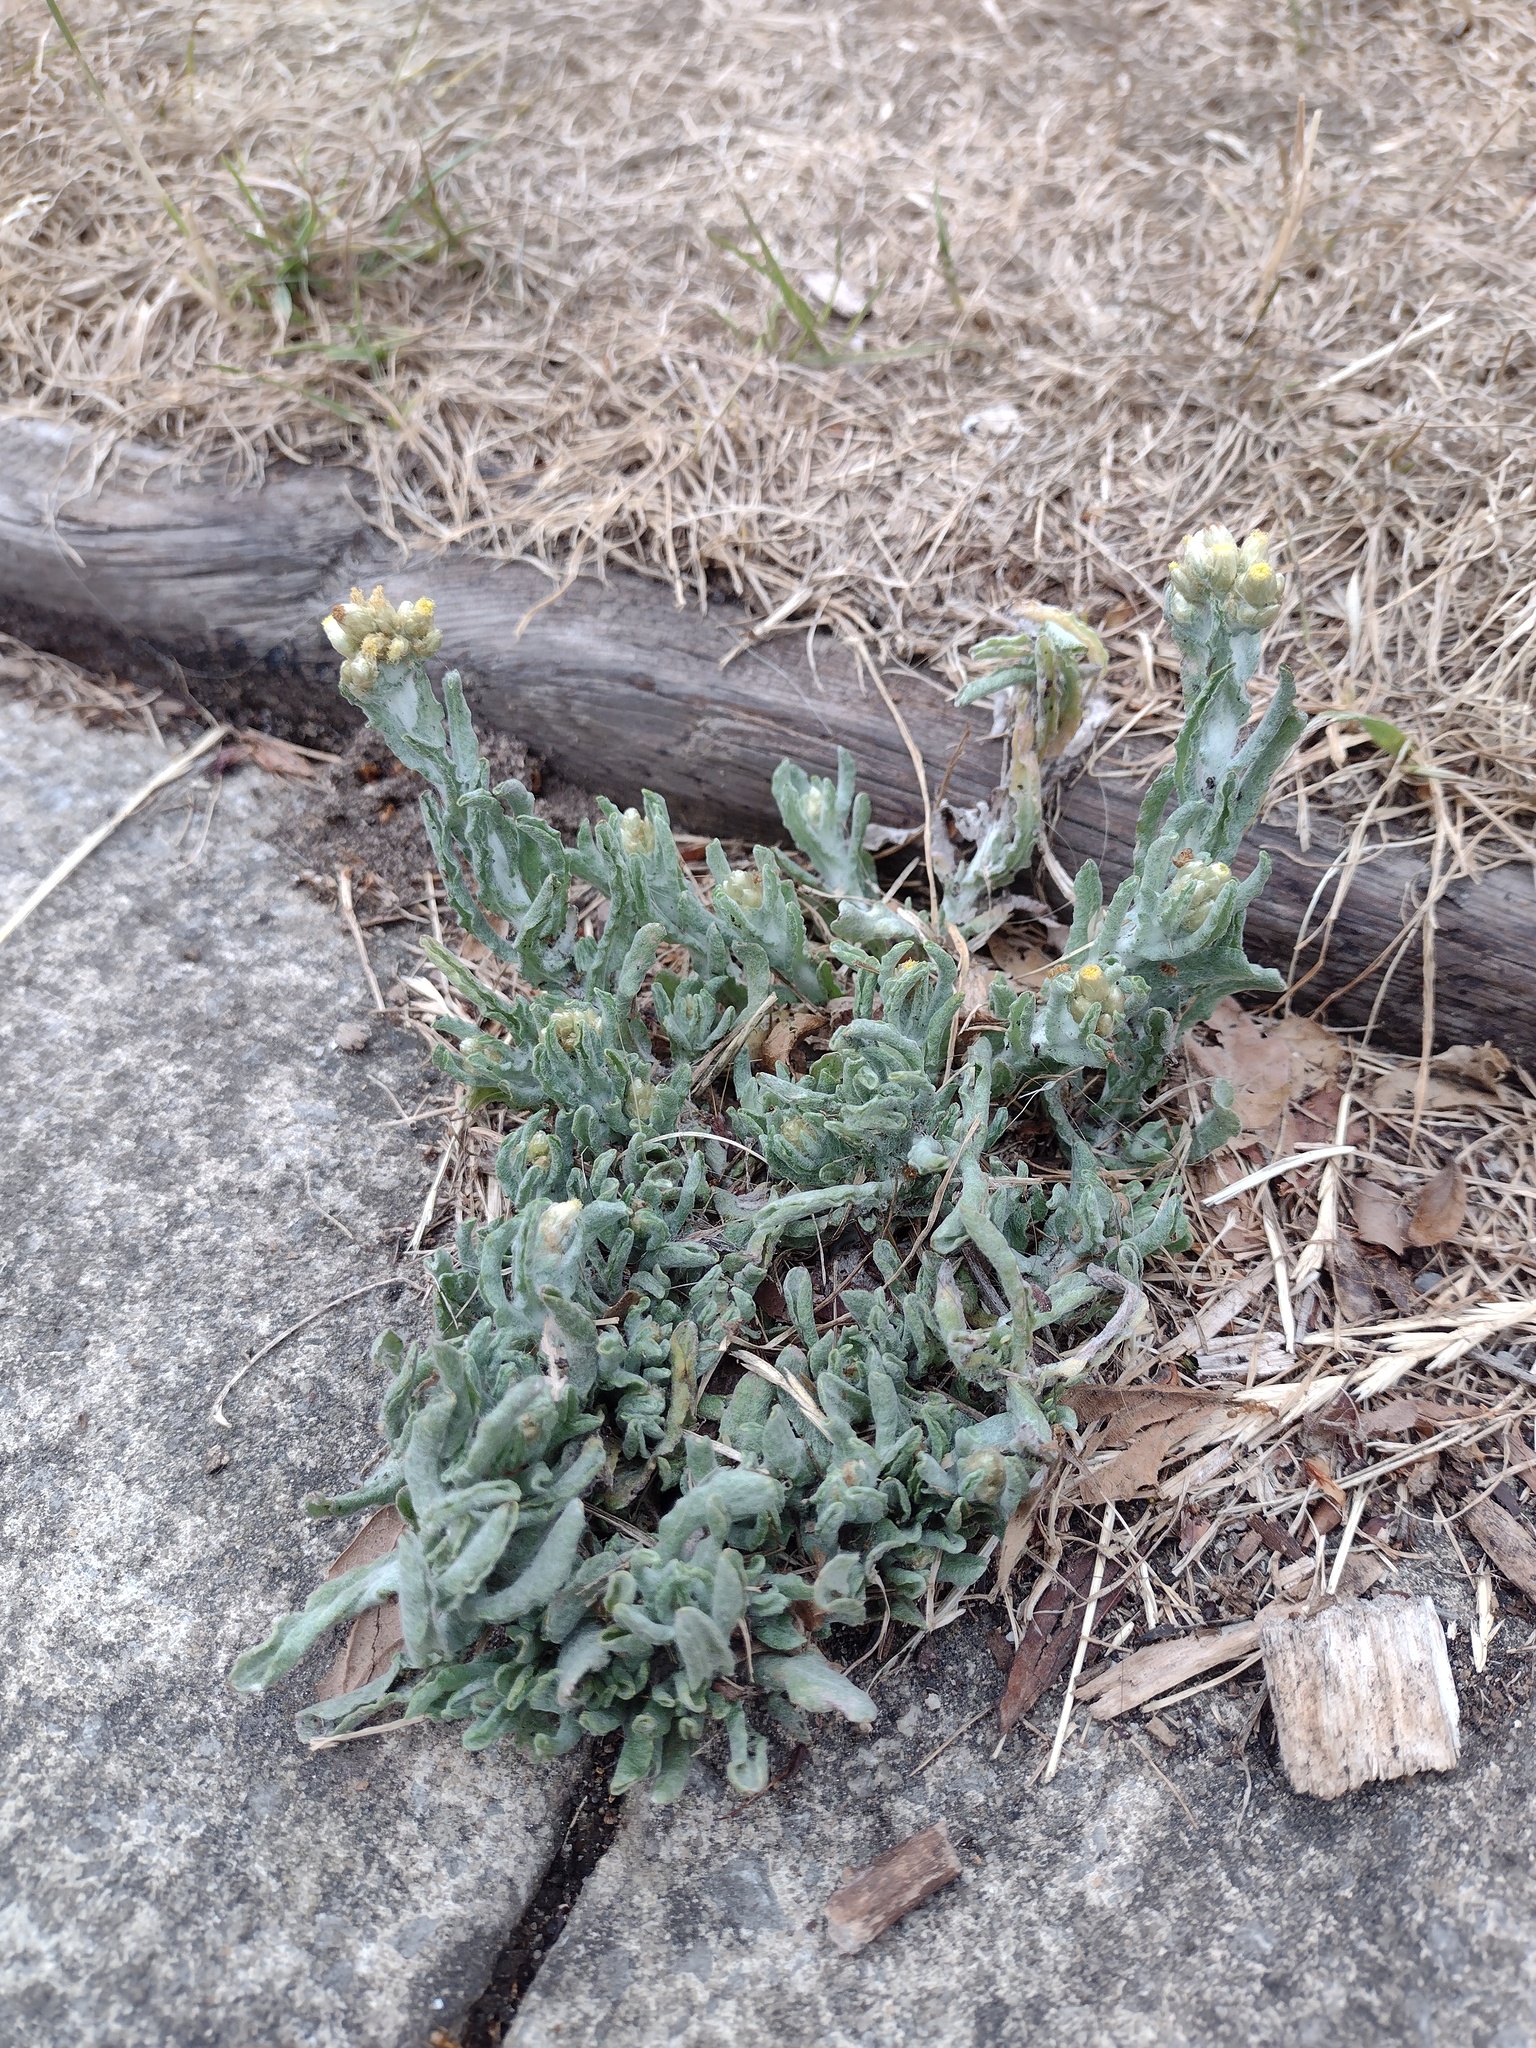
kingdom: Plantae
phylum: Tracheophyta
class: Magnoliopsida
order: Asterales
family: Asteraceae
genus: Helichrysum
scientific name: Helichrysum luteoalbum
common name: Daisy
